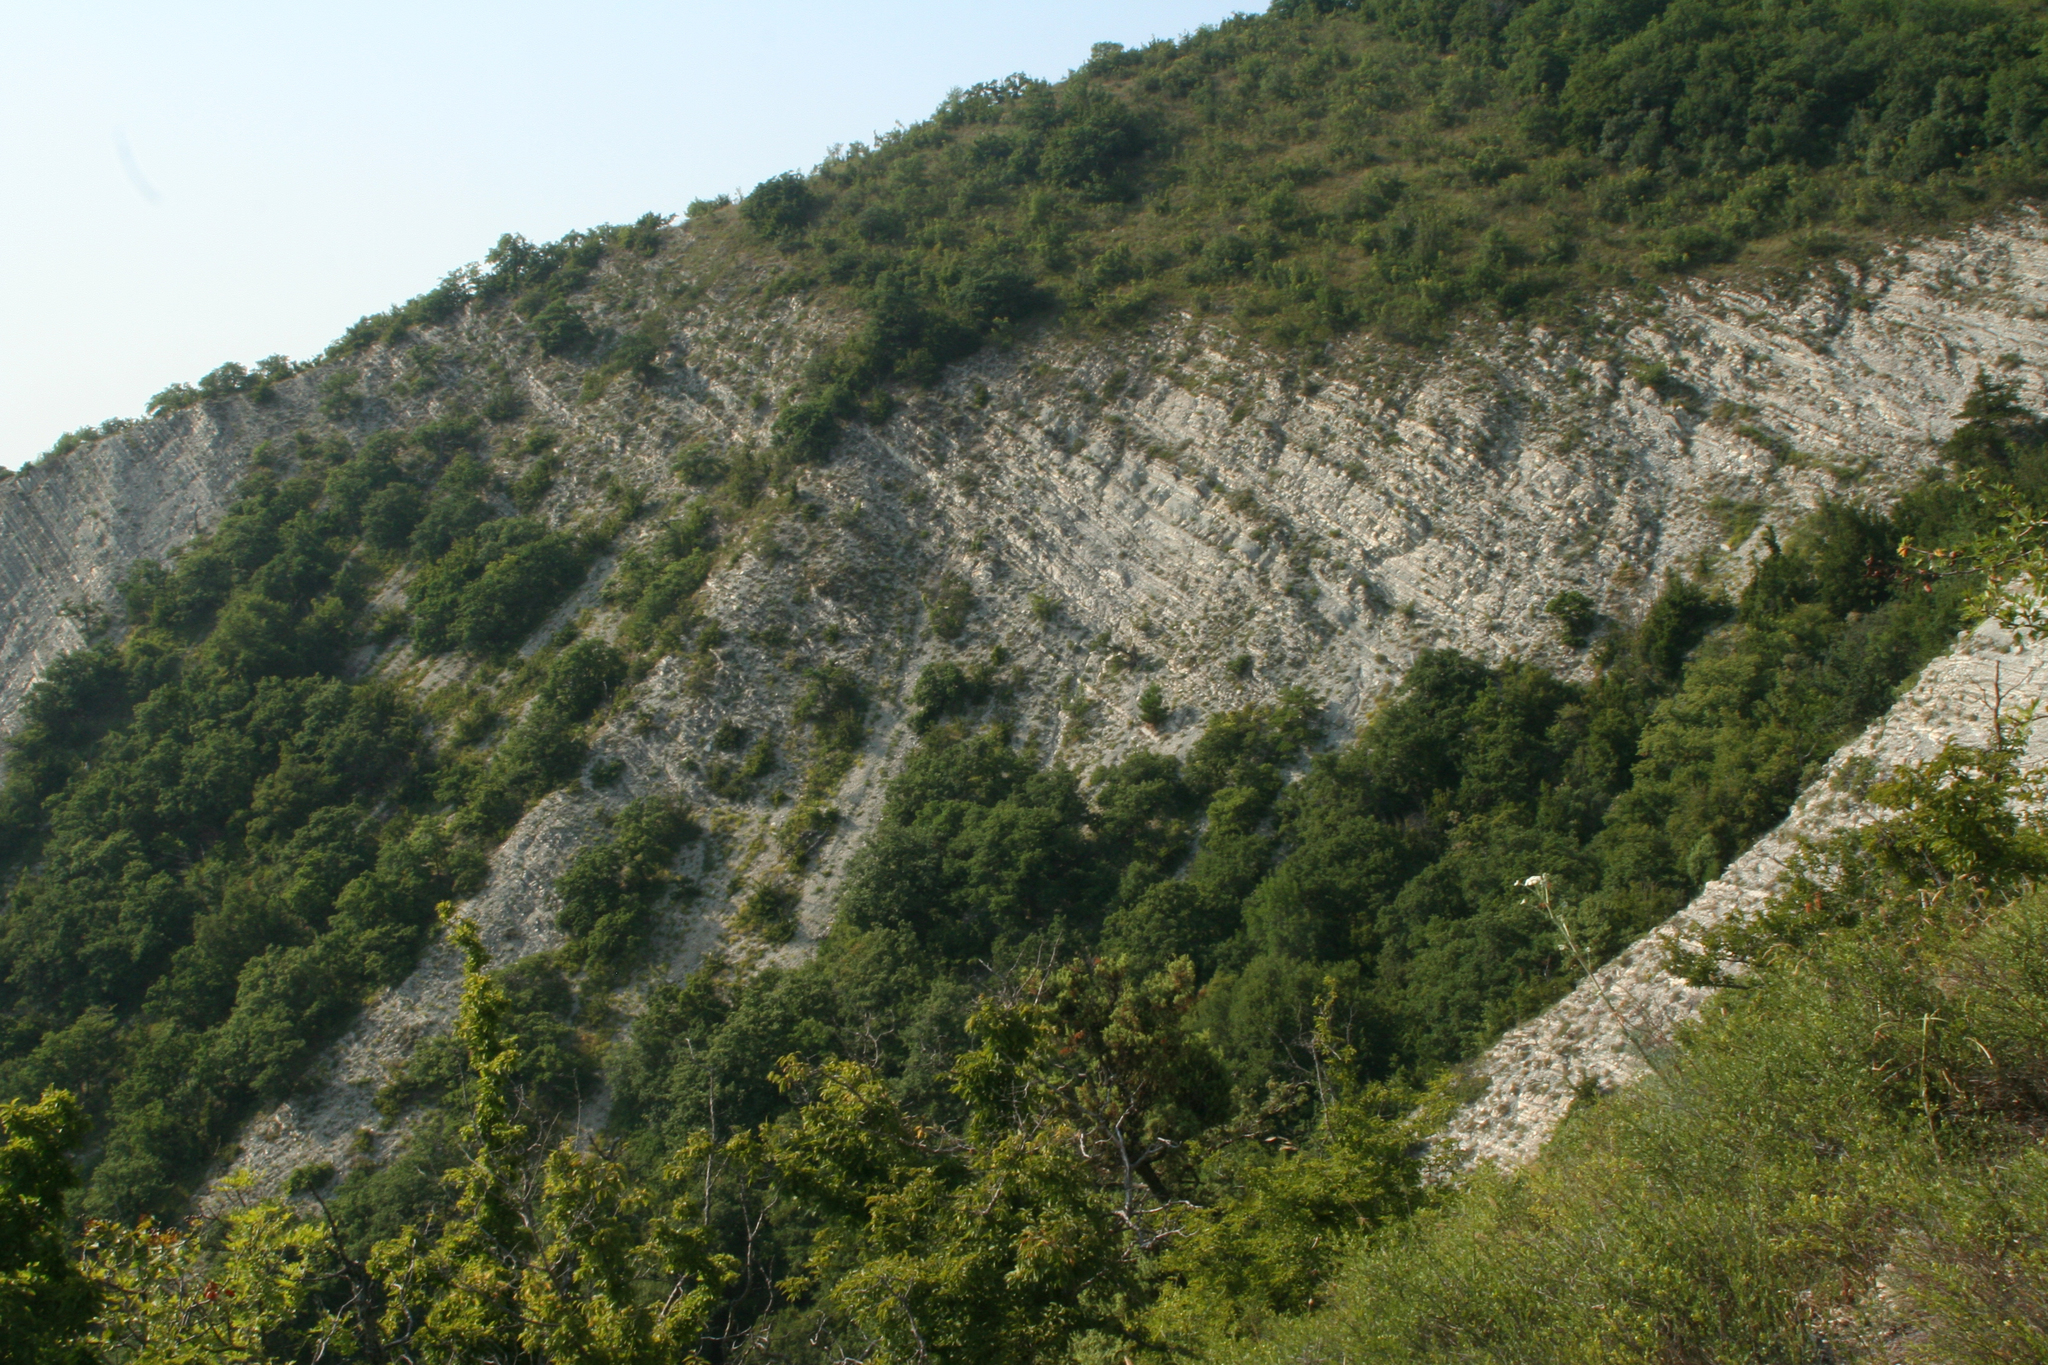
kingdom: Plantae
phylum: Tracheophyta
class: Magnoliopsida
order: Fagales
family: Betulaceae
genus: Carpinus
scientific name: Carpinus orientalis
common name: Eastern hornbeam
